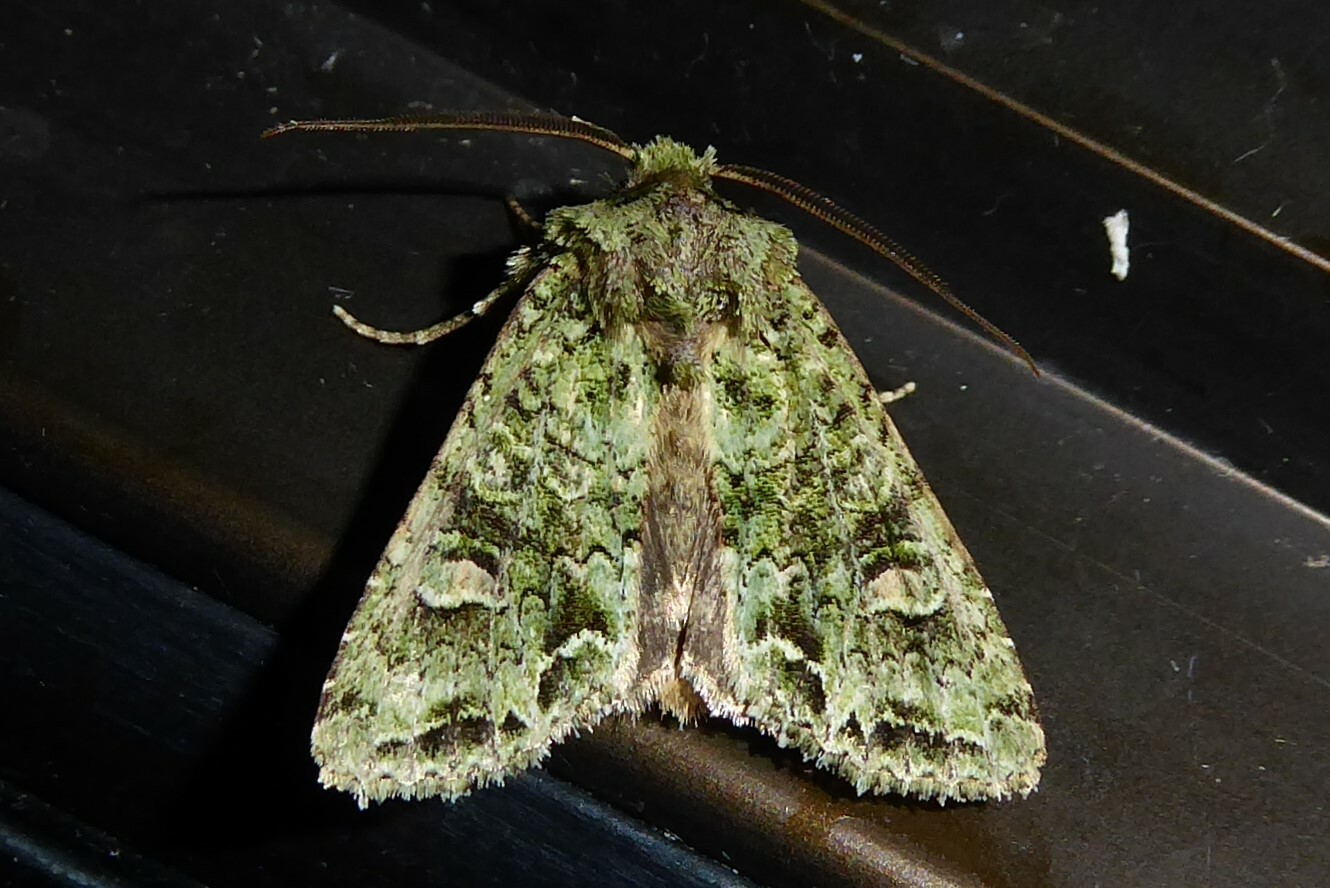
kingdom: Animalia
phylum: Arthropoda
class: Insecta
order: Lepidoptera
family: Noctuidae
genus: Ichneutica
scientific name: Ichneutica
